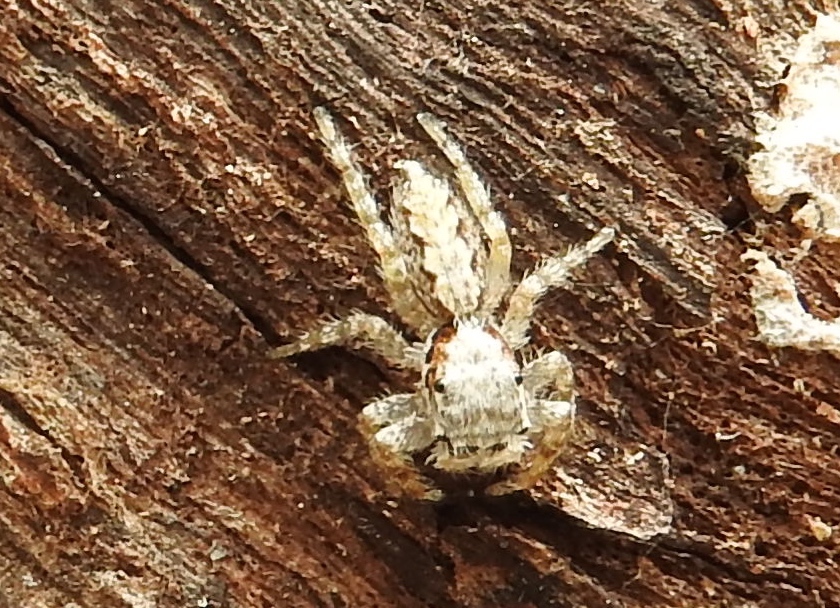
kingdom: Animalia
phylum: Arthropoda
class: Arachnida
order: Araneae
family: Salticidae
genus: Balmaceda
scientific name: Balmaceda
